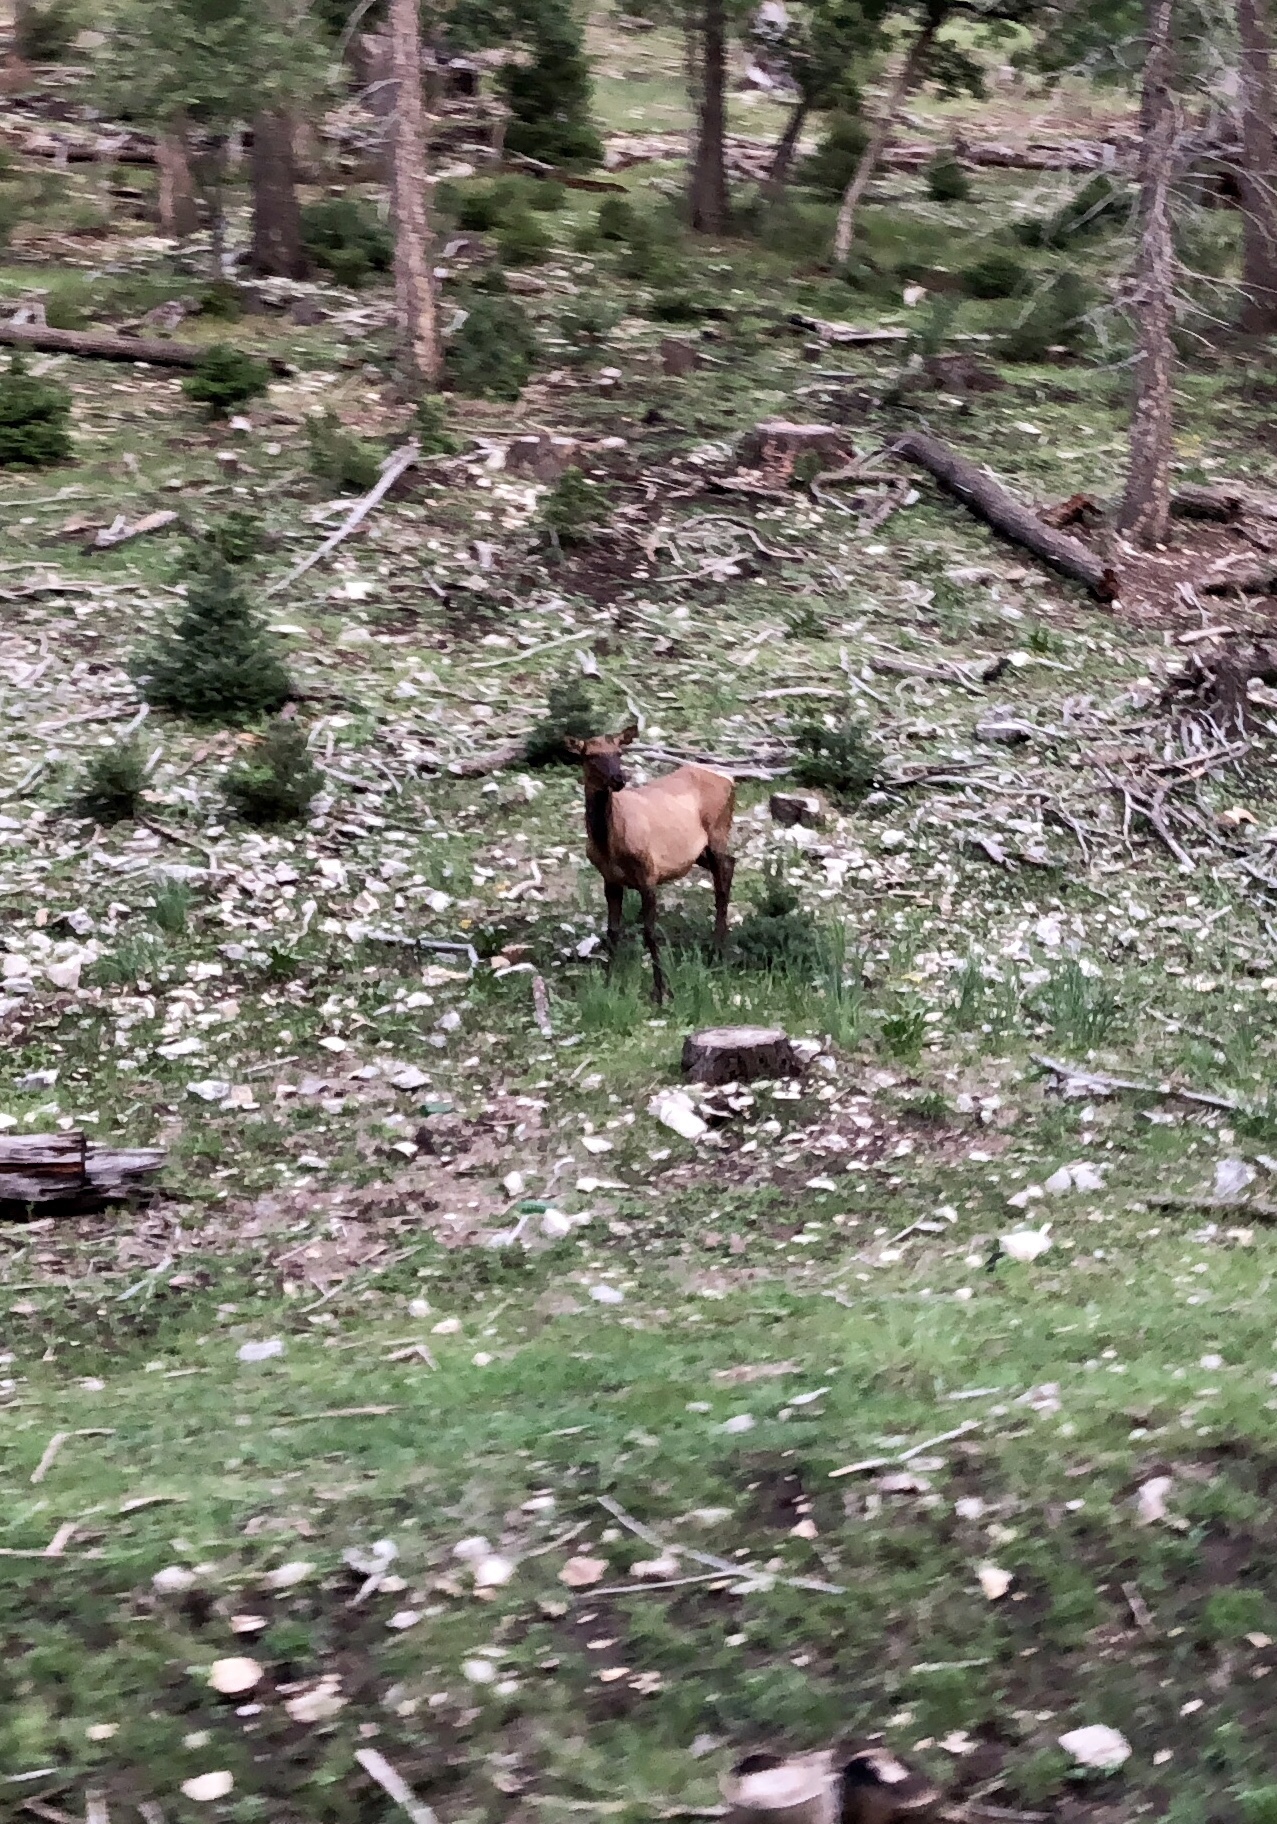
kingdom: Animalia
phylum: Chordata
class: Mammalia
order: Artiodactyla
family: Cervidae
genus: Cervus
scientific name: Cervus elaphus
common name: Red deer
